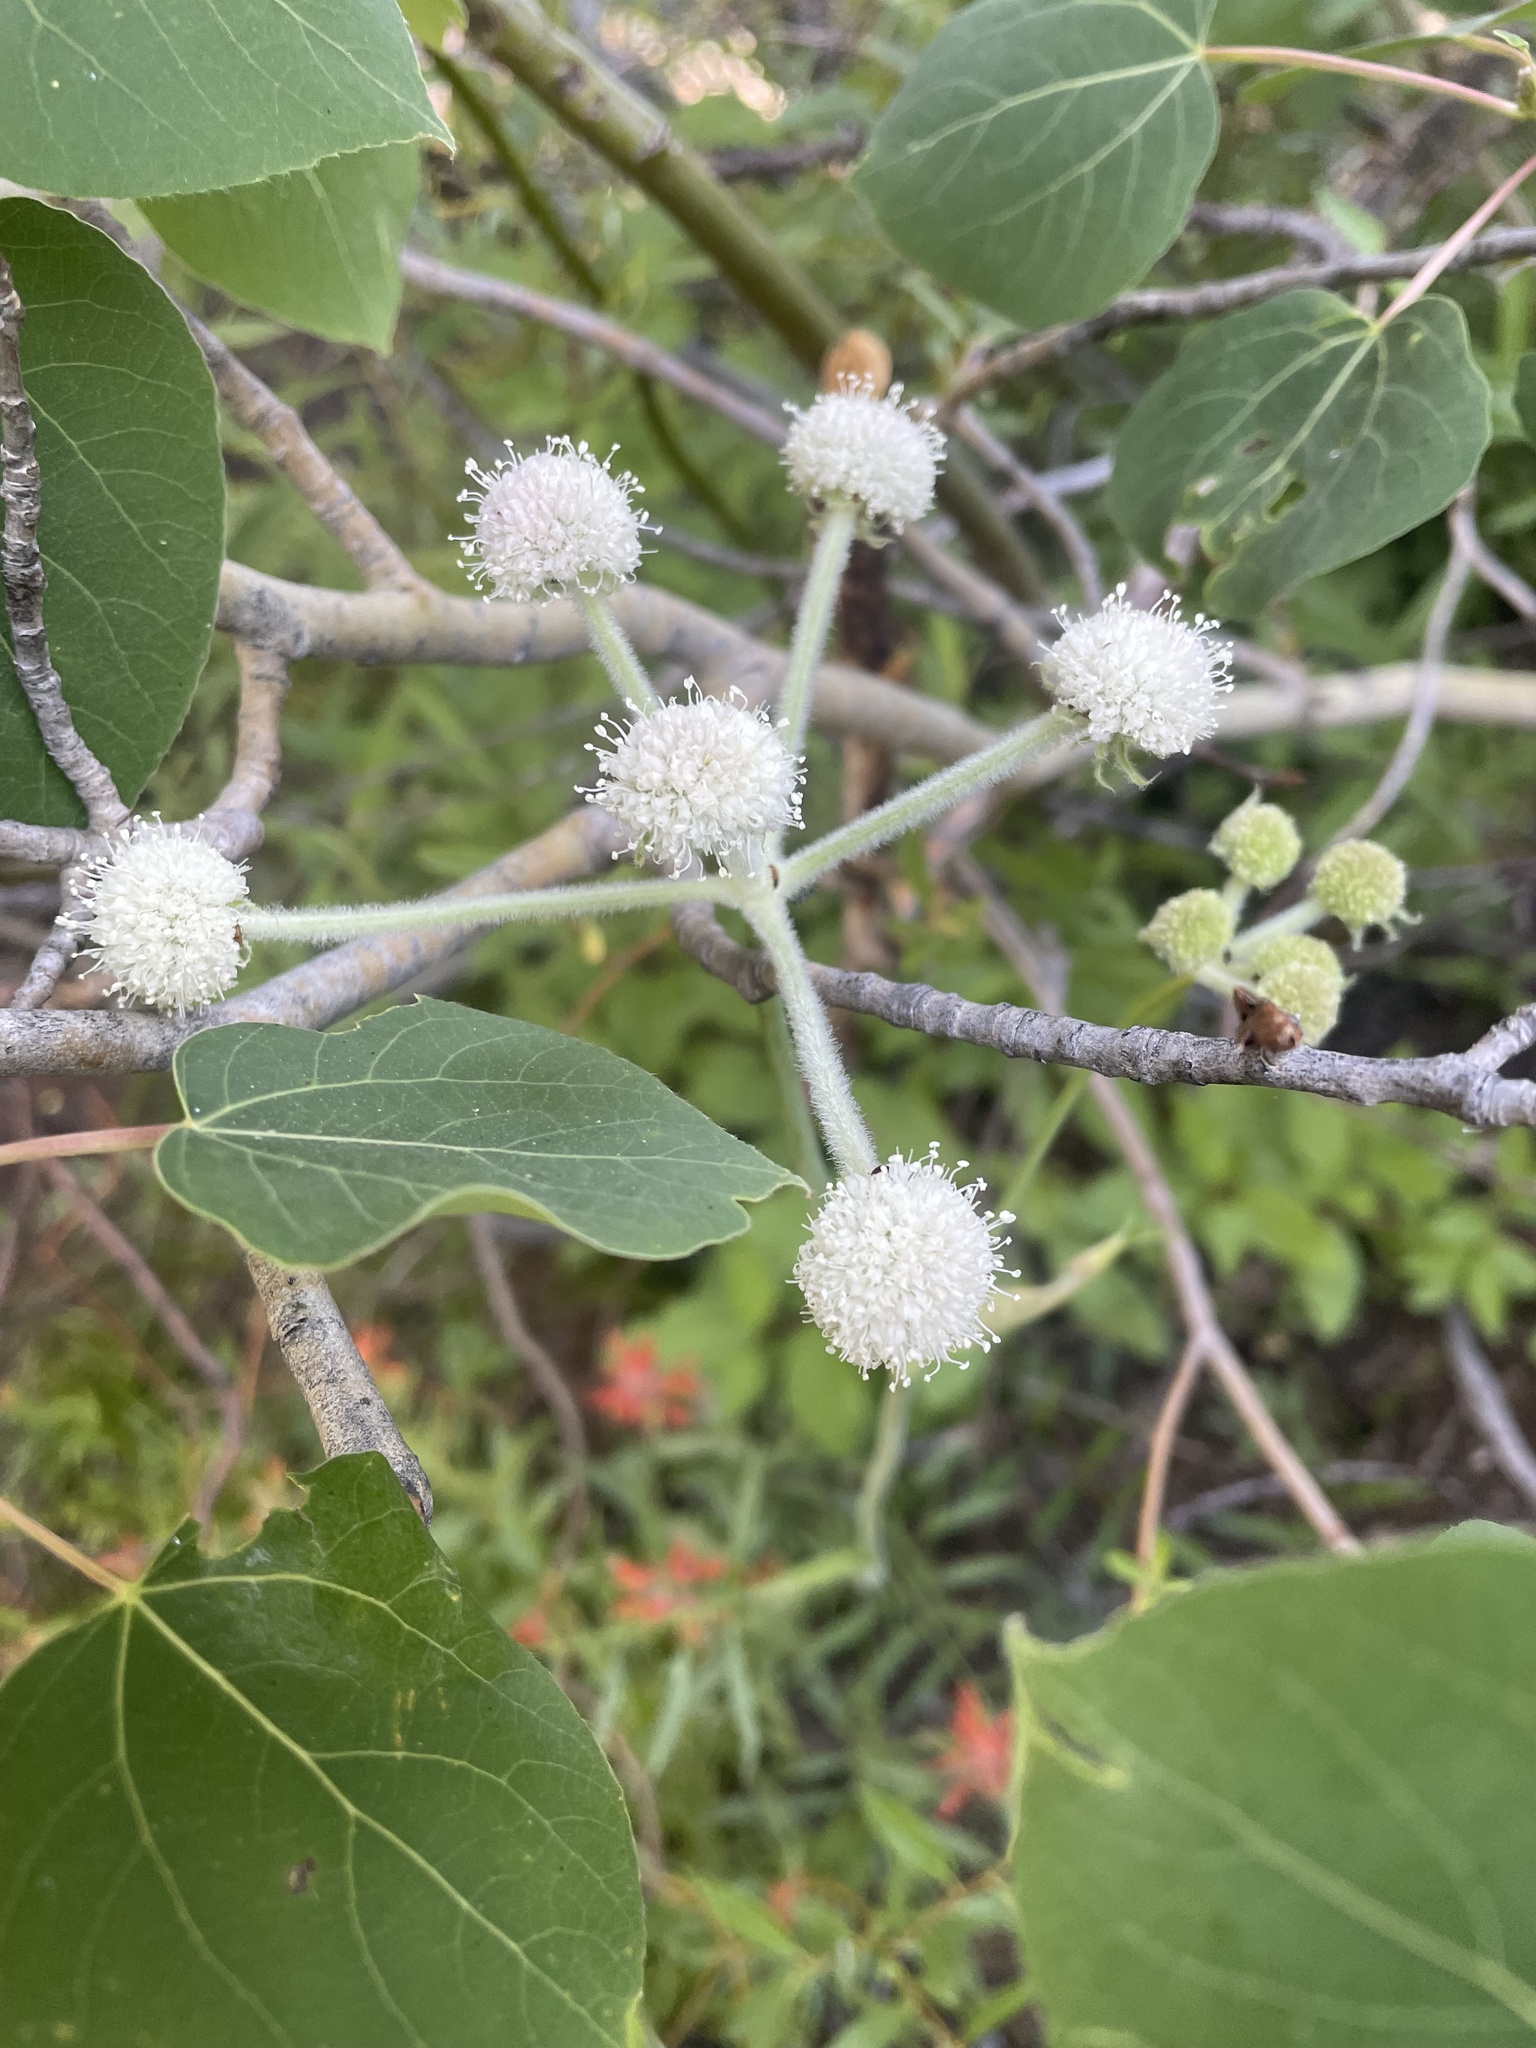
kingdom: Plantae
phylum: Tracheophyta
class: Magnoliopsida
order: Apiales
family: Apiaceae
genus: Angelica
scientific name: Angelica capitellata
